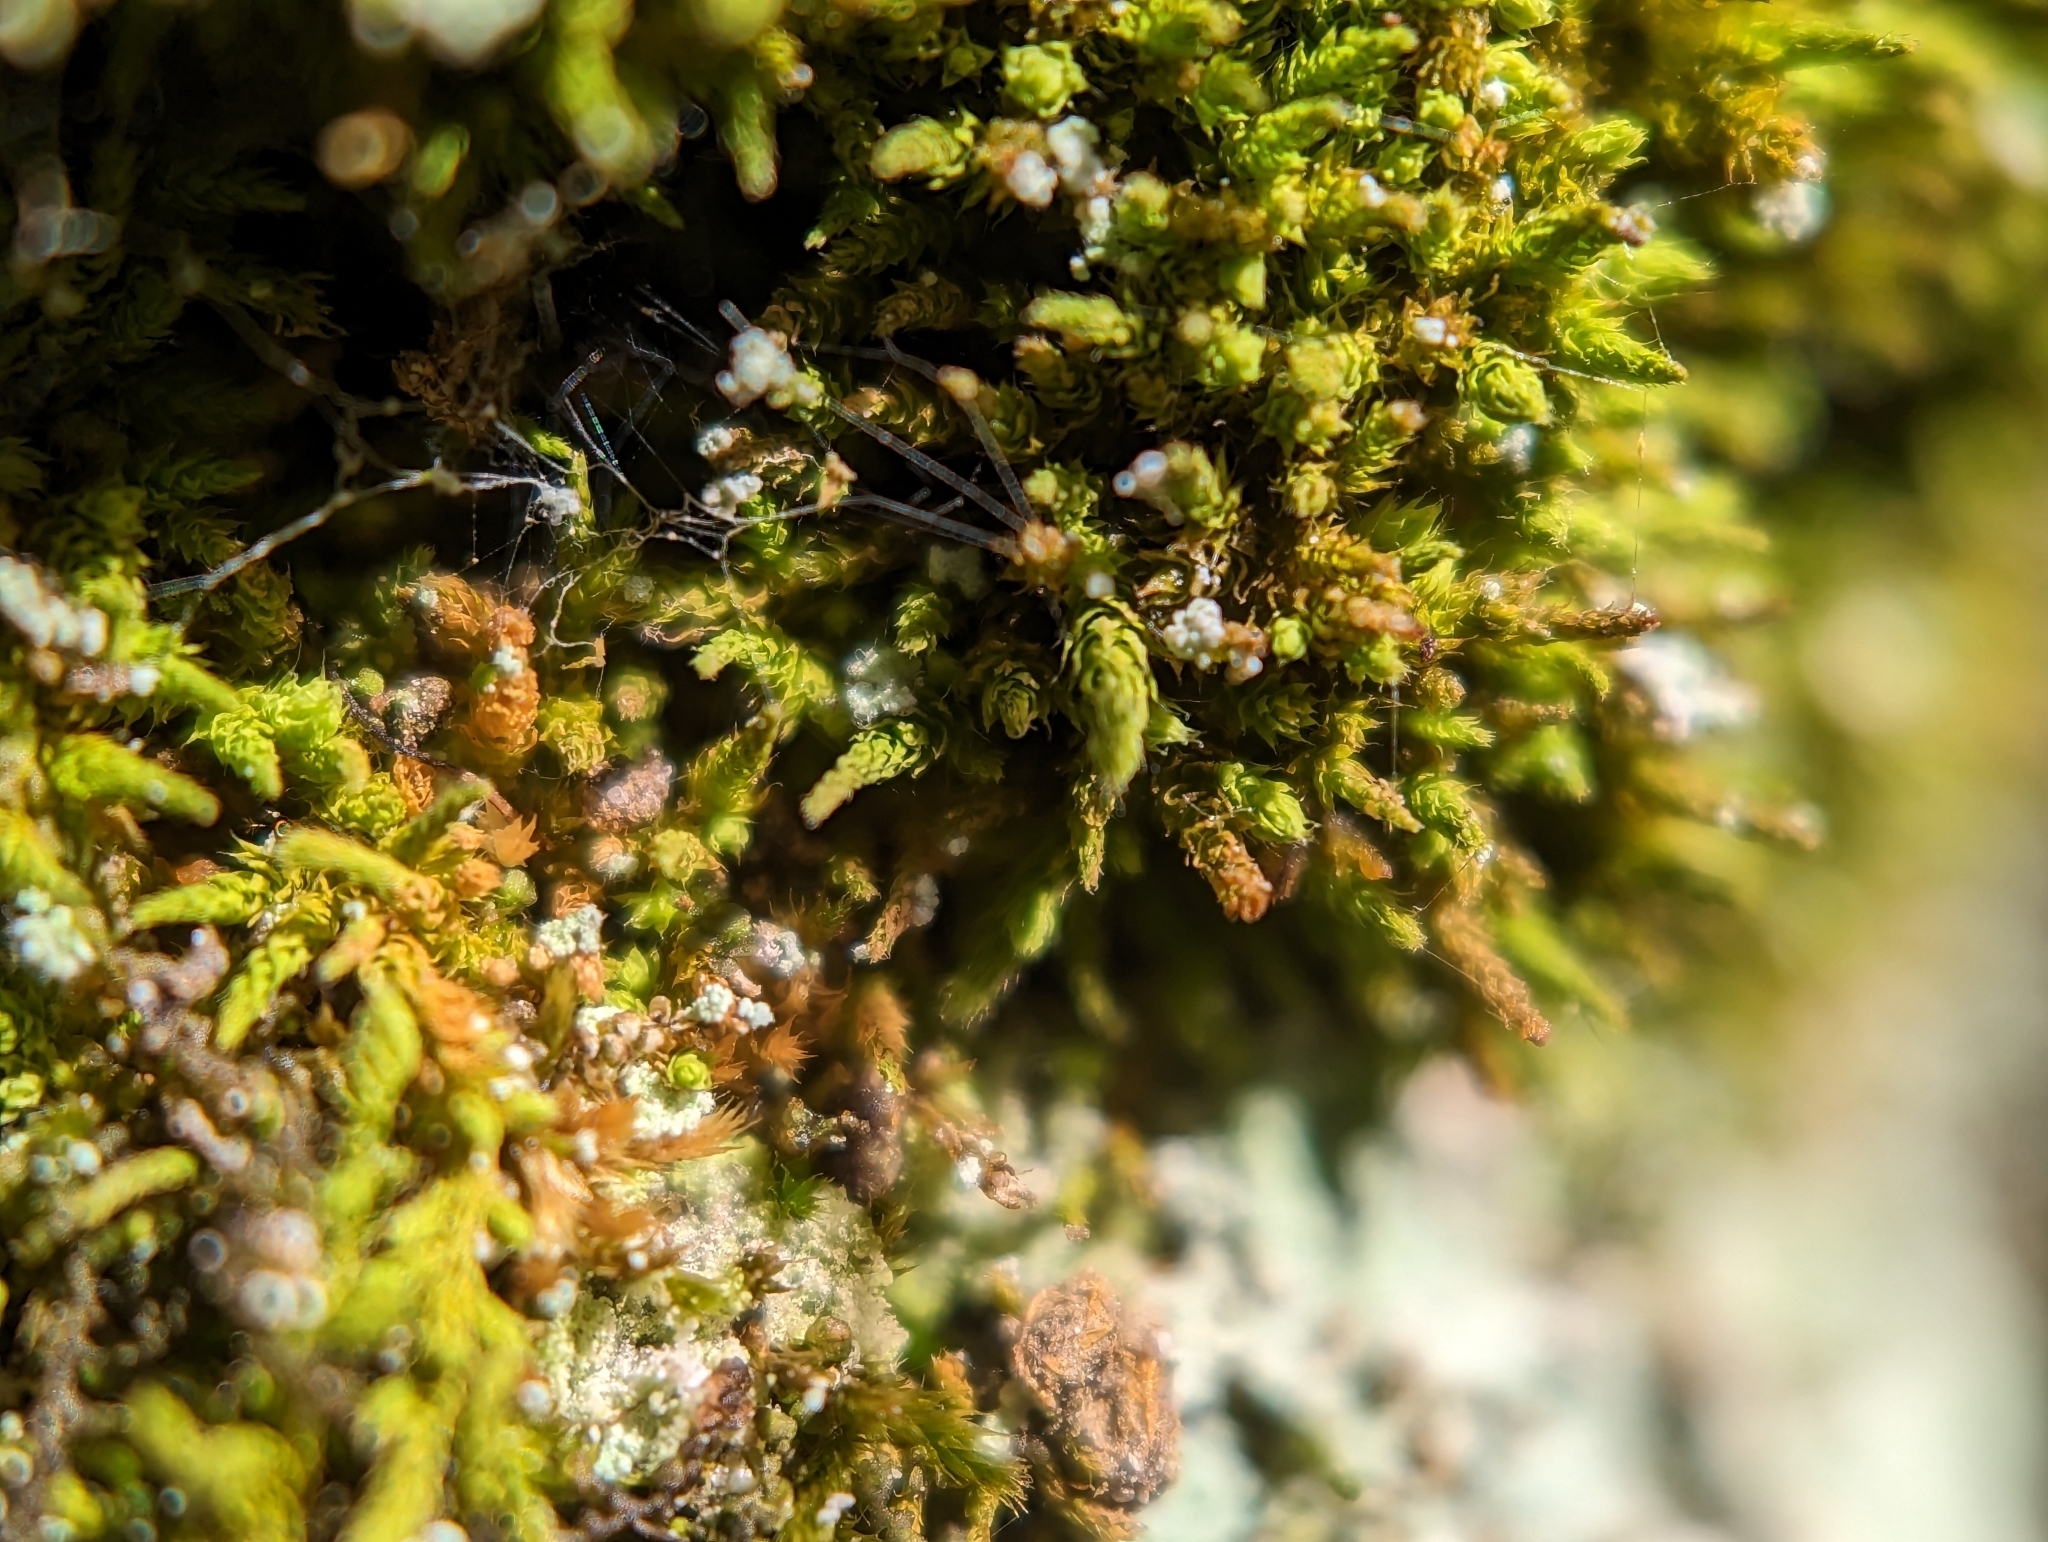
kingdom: Plantae
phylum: Bryophyta
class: Bryopsida
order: Hypnales
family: Brachytheciaceae
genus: Claopodium
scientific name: Claopodium rostratum
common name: Yellow yarn moss
